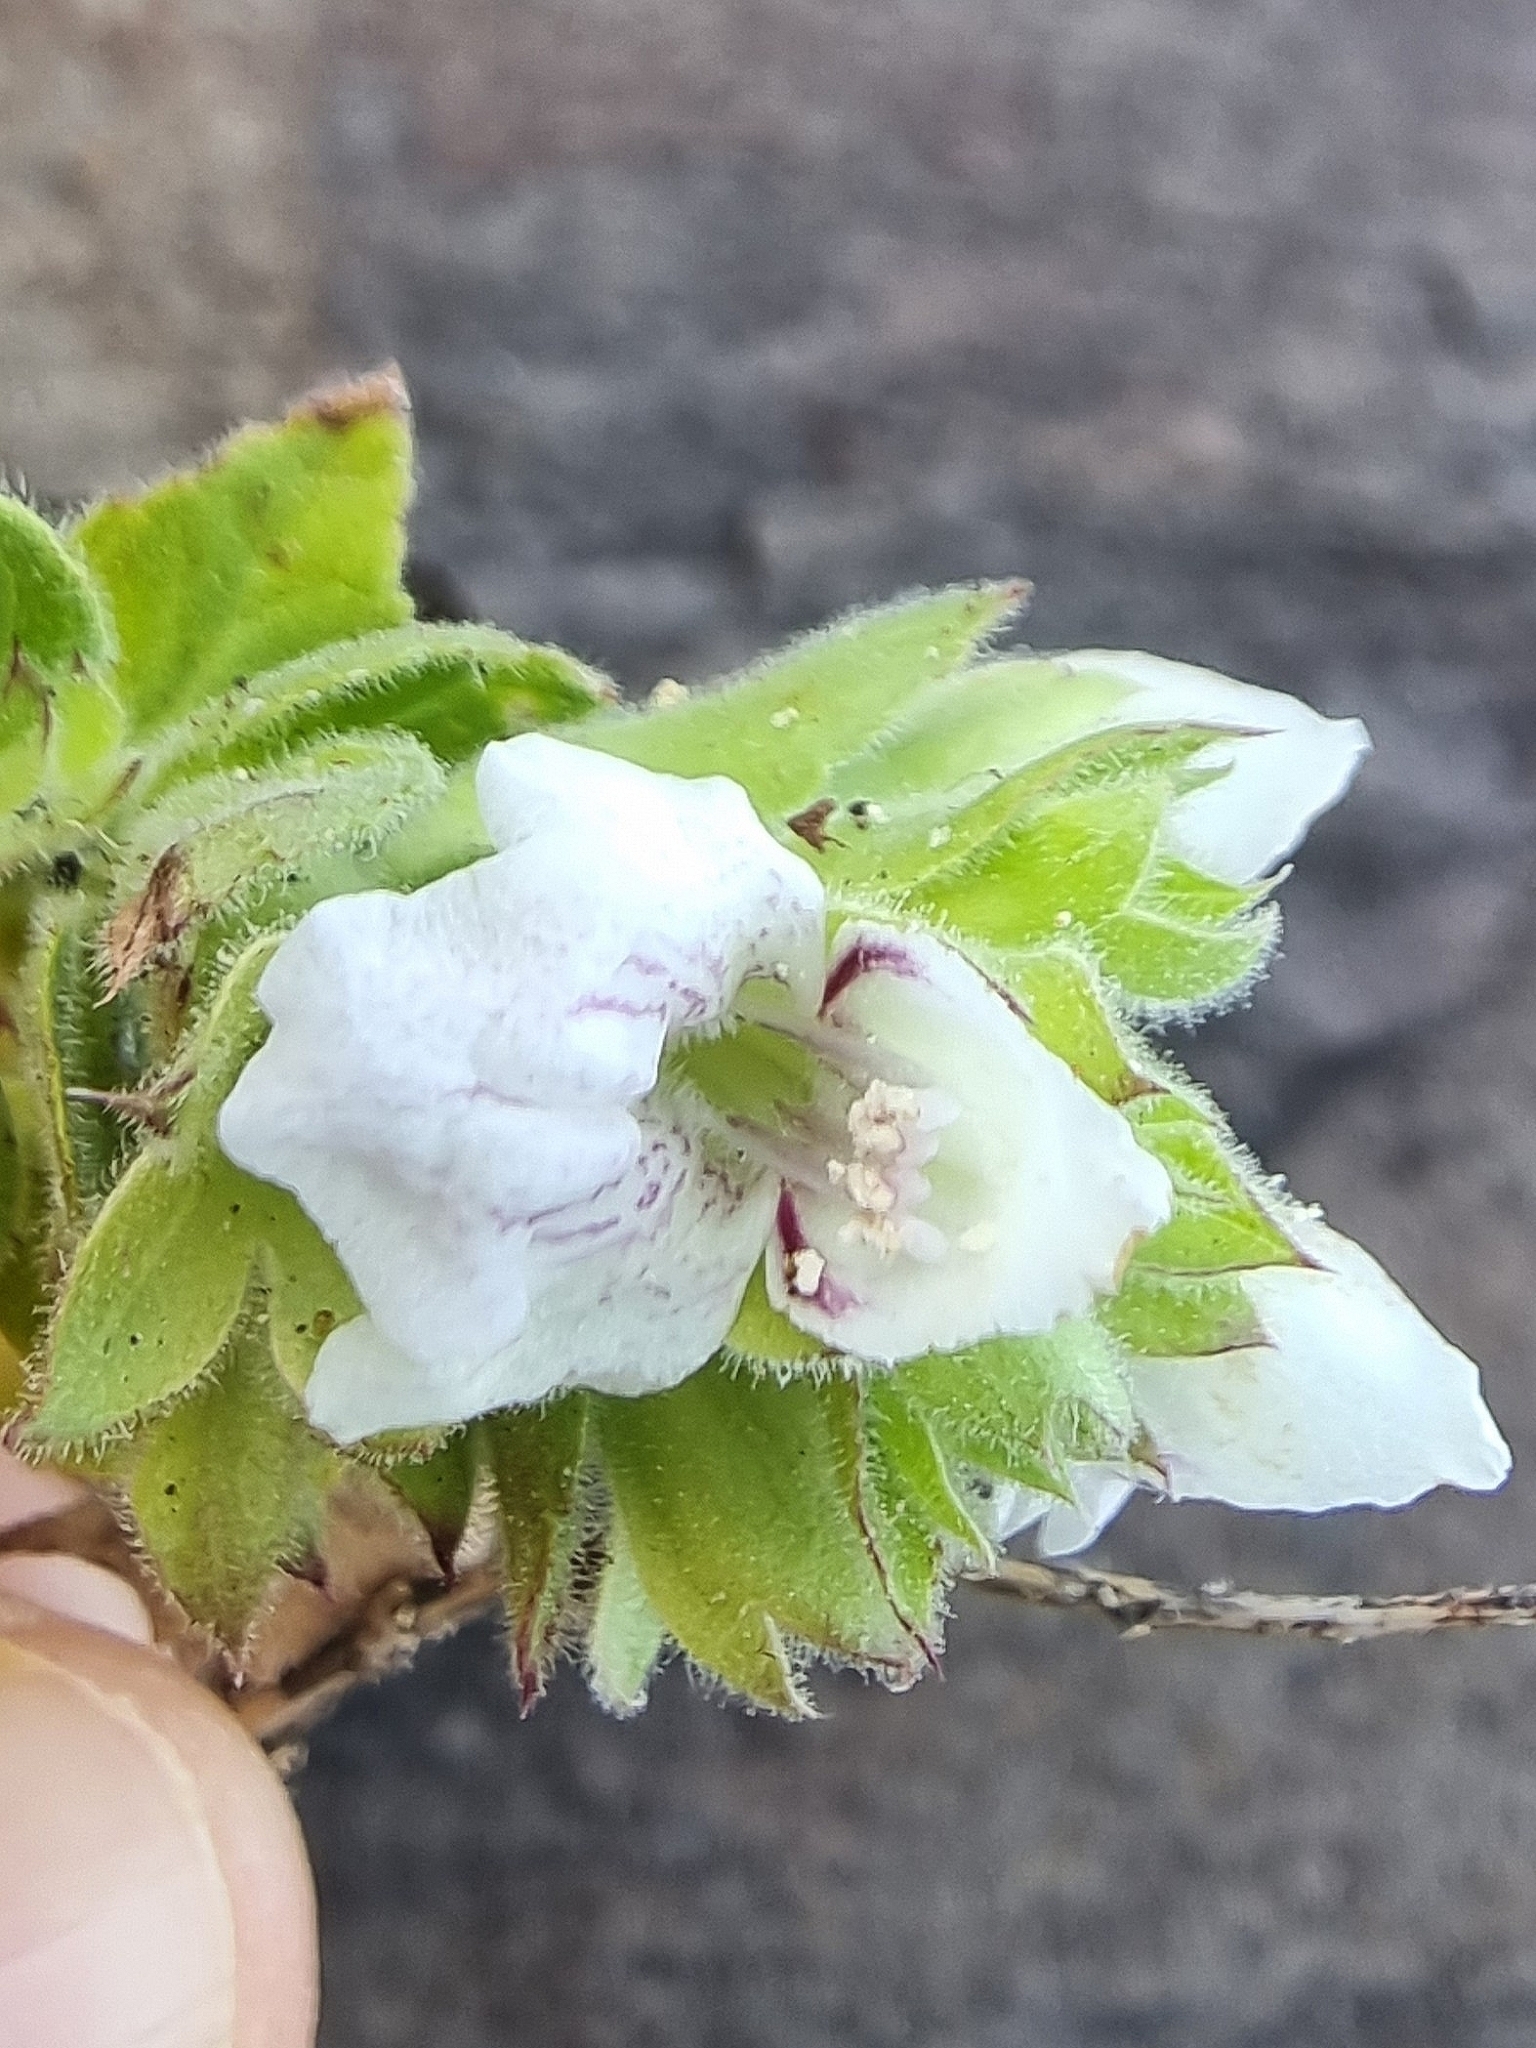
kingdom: Plantae
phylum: Tracheophyta
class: Magnoliopsida
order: Lamiales
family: Lamiaceae
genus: Prasium
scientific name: Prasium majus
